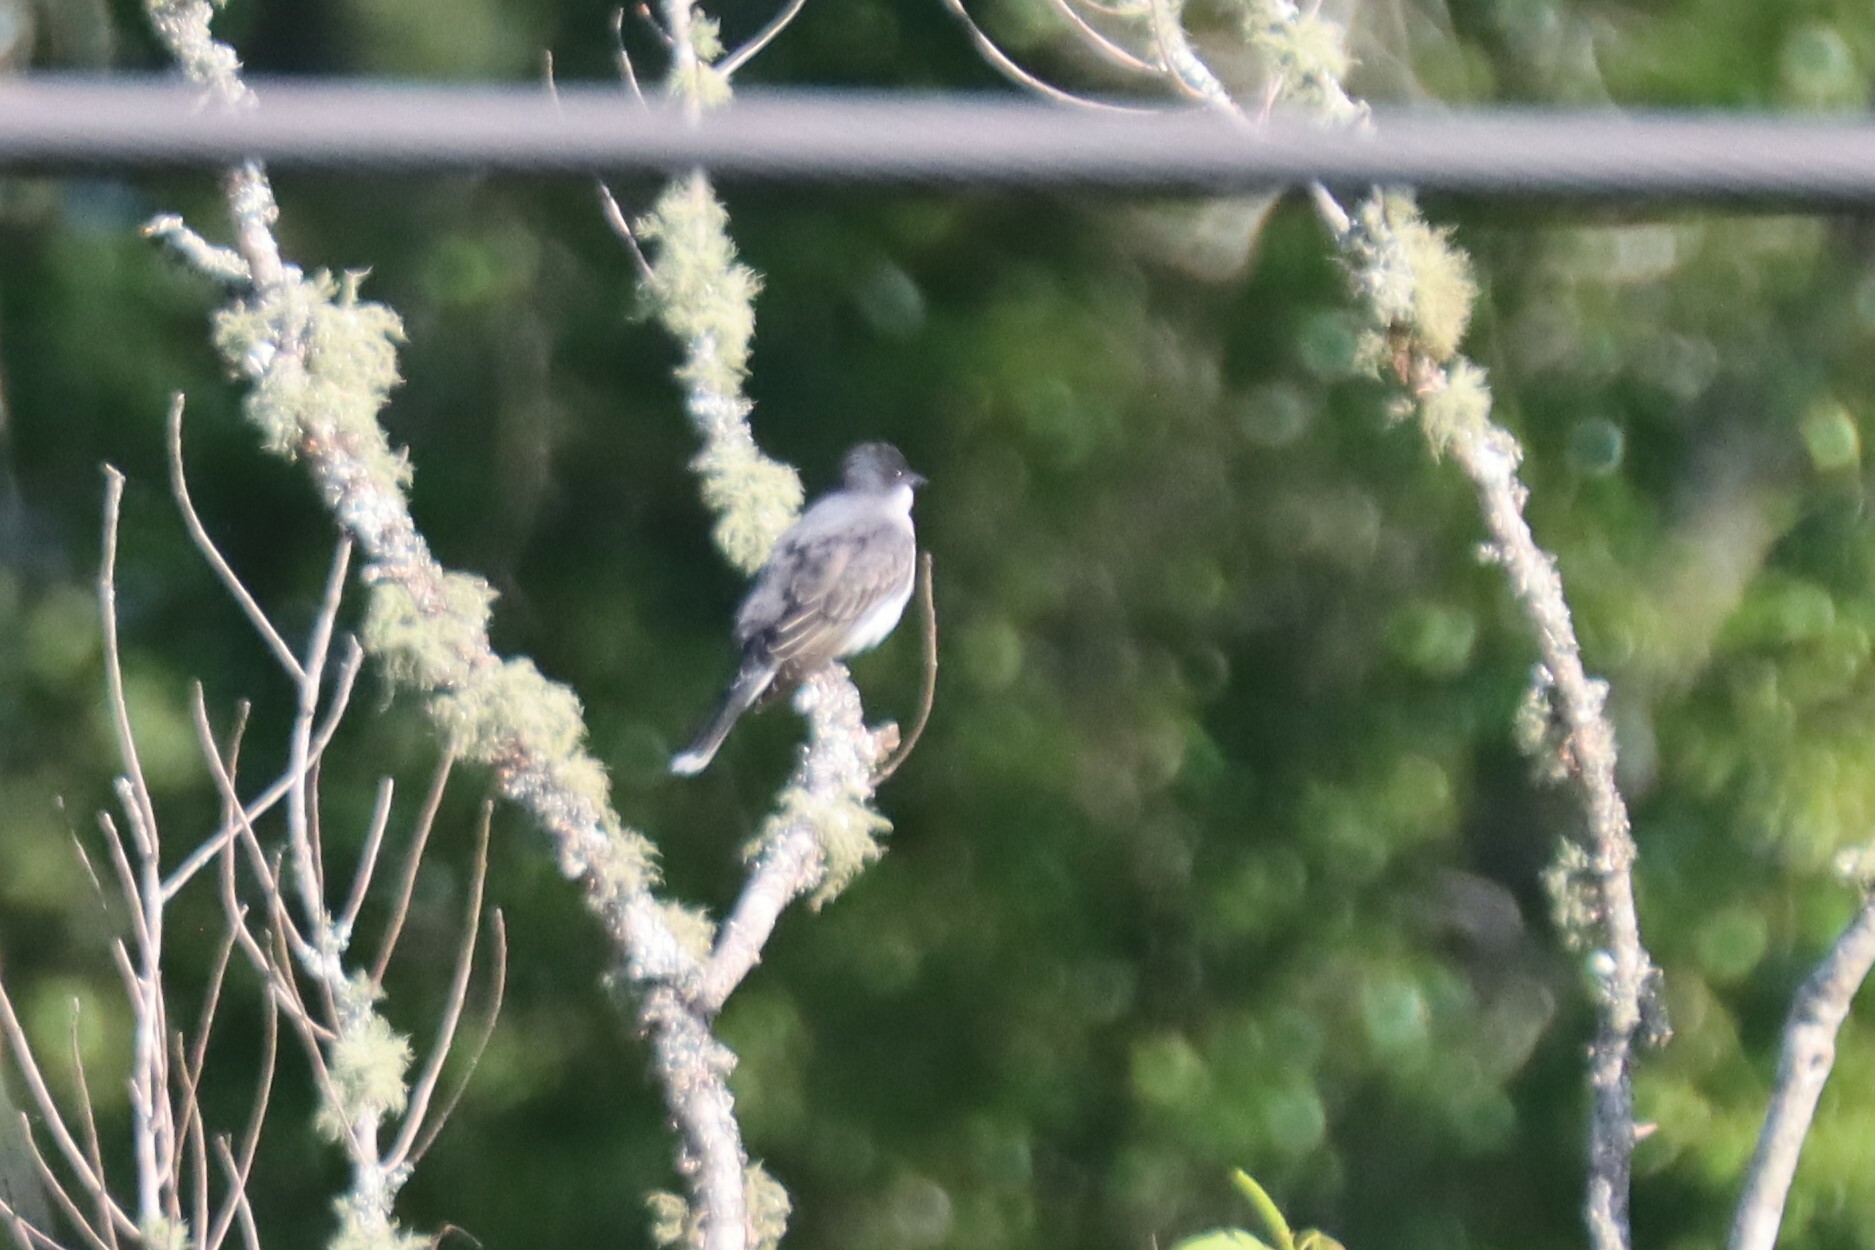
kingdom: Animalia
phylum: Chordata
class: Aves
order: Passeriformes
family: Tyrannidae
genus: Tyrannus
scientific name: Tyrannus tyrannus
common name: Eastern kingbird
